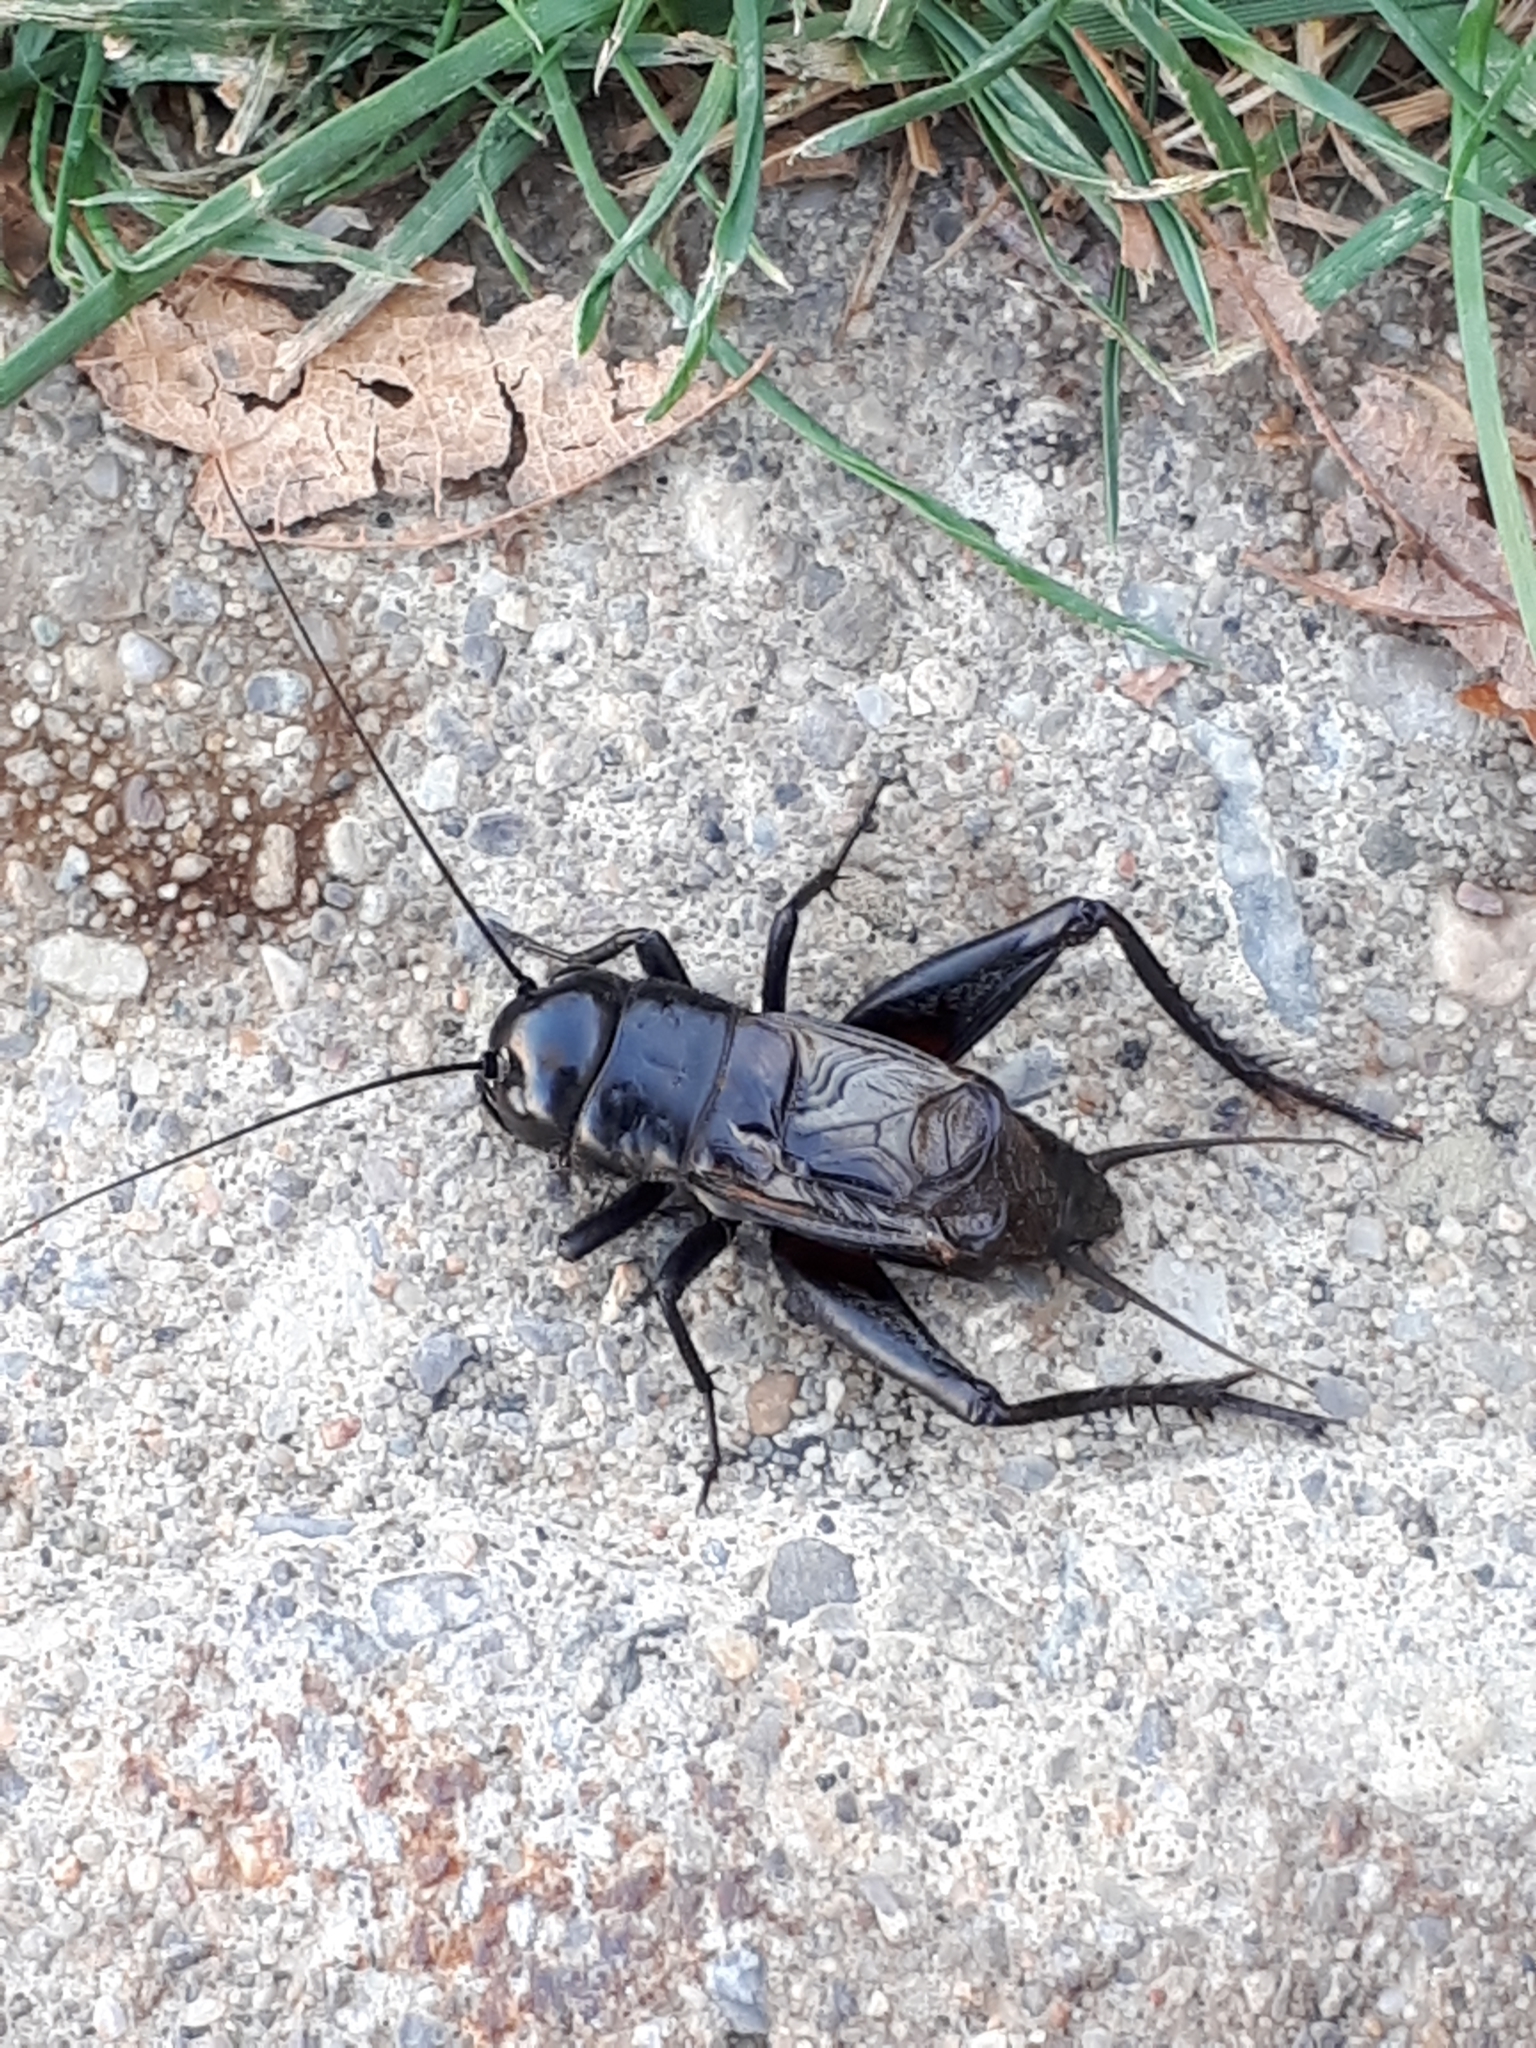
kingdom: Animalia
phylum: Arthropoda
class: Insecta
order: Orthoptera
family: Gryllidae
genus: Gryllus
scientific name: Gryllus pennsylvanicus
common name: Fall field cricket
